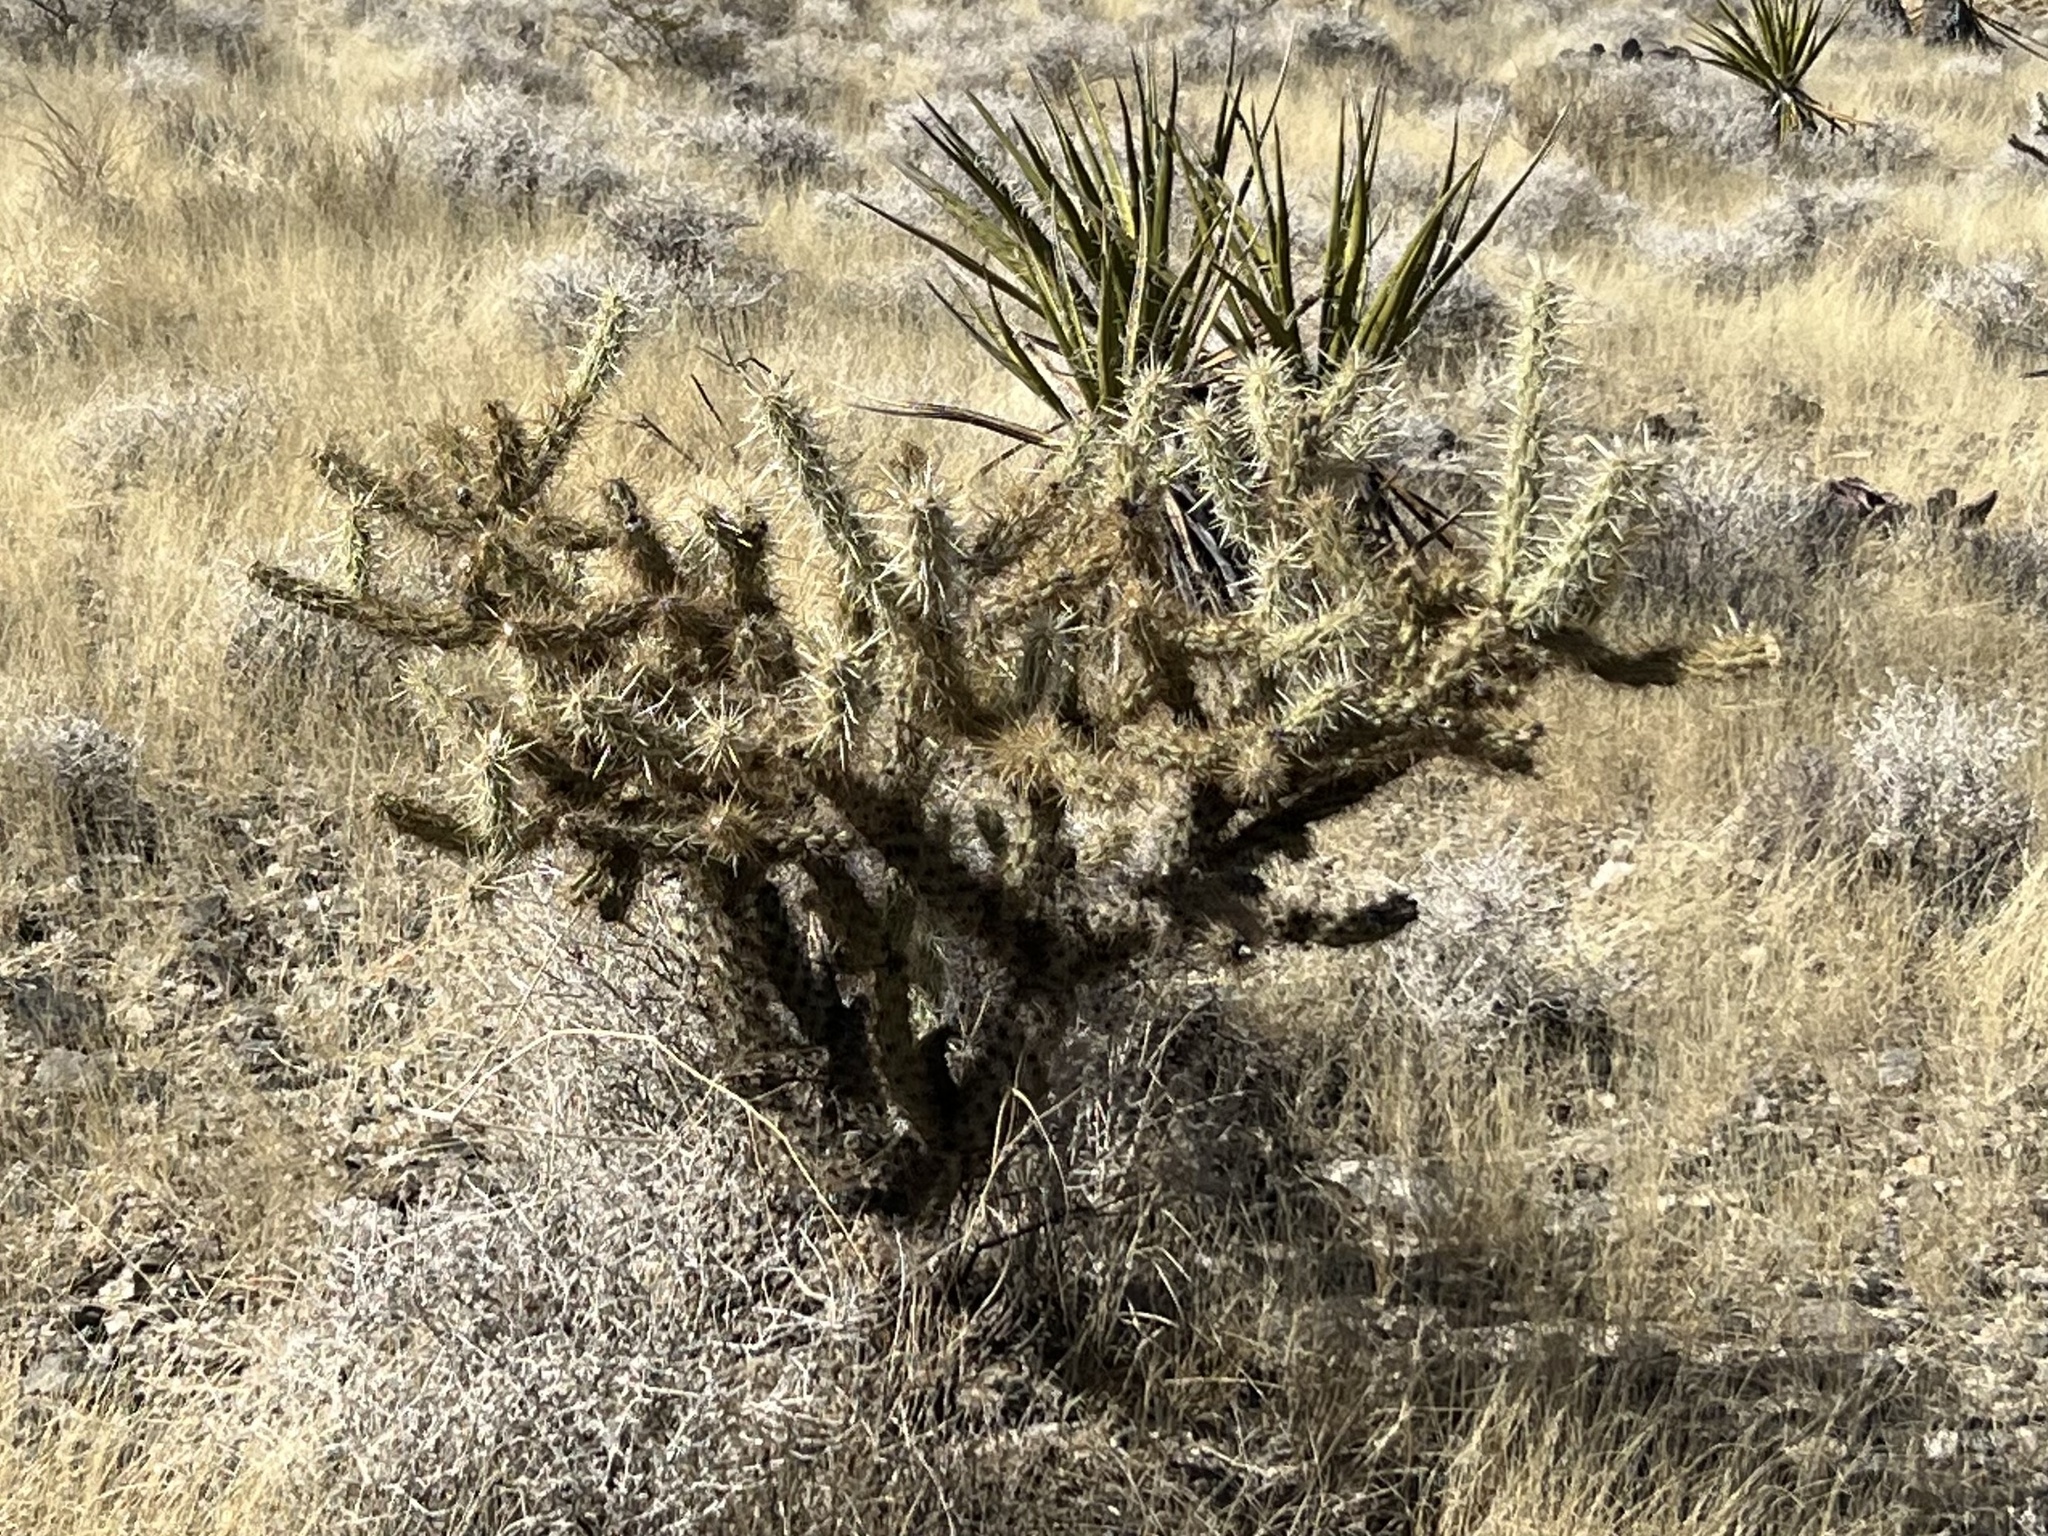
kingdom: Plantae
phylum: Tracheophyta
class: Magnoliopsida
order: Caryophyllales
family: Cactaceae
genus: Cylindropuntia
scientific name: Cylindropuntia acanthocarpa
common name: Buckhorn cholla
